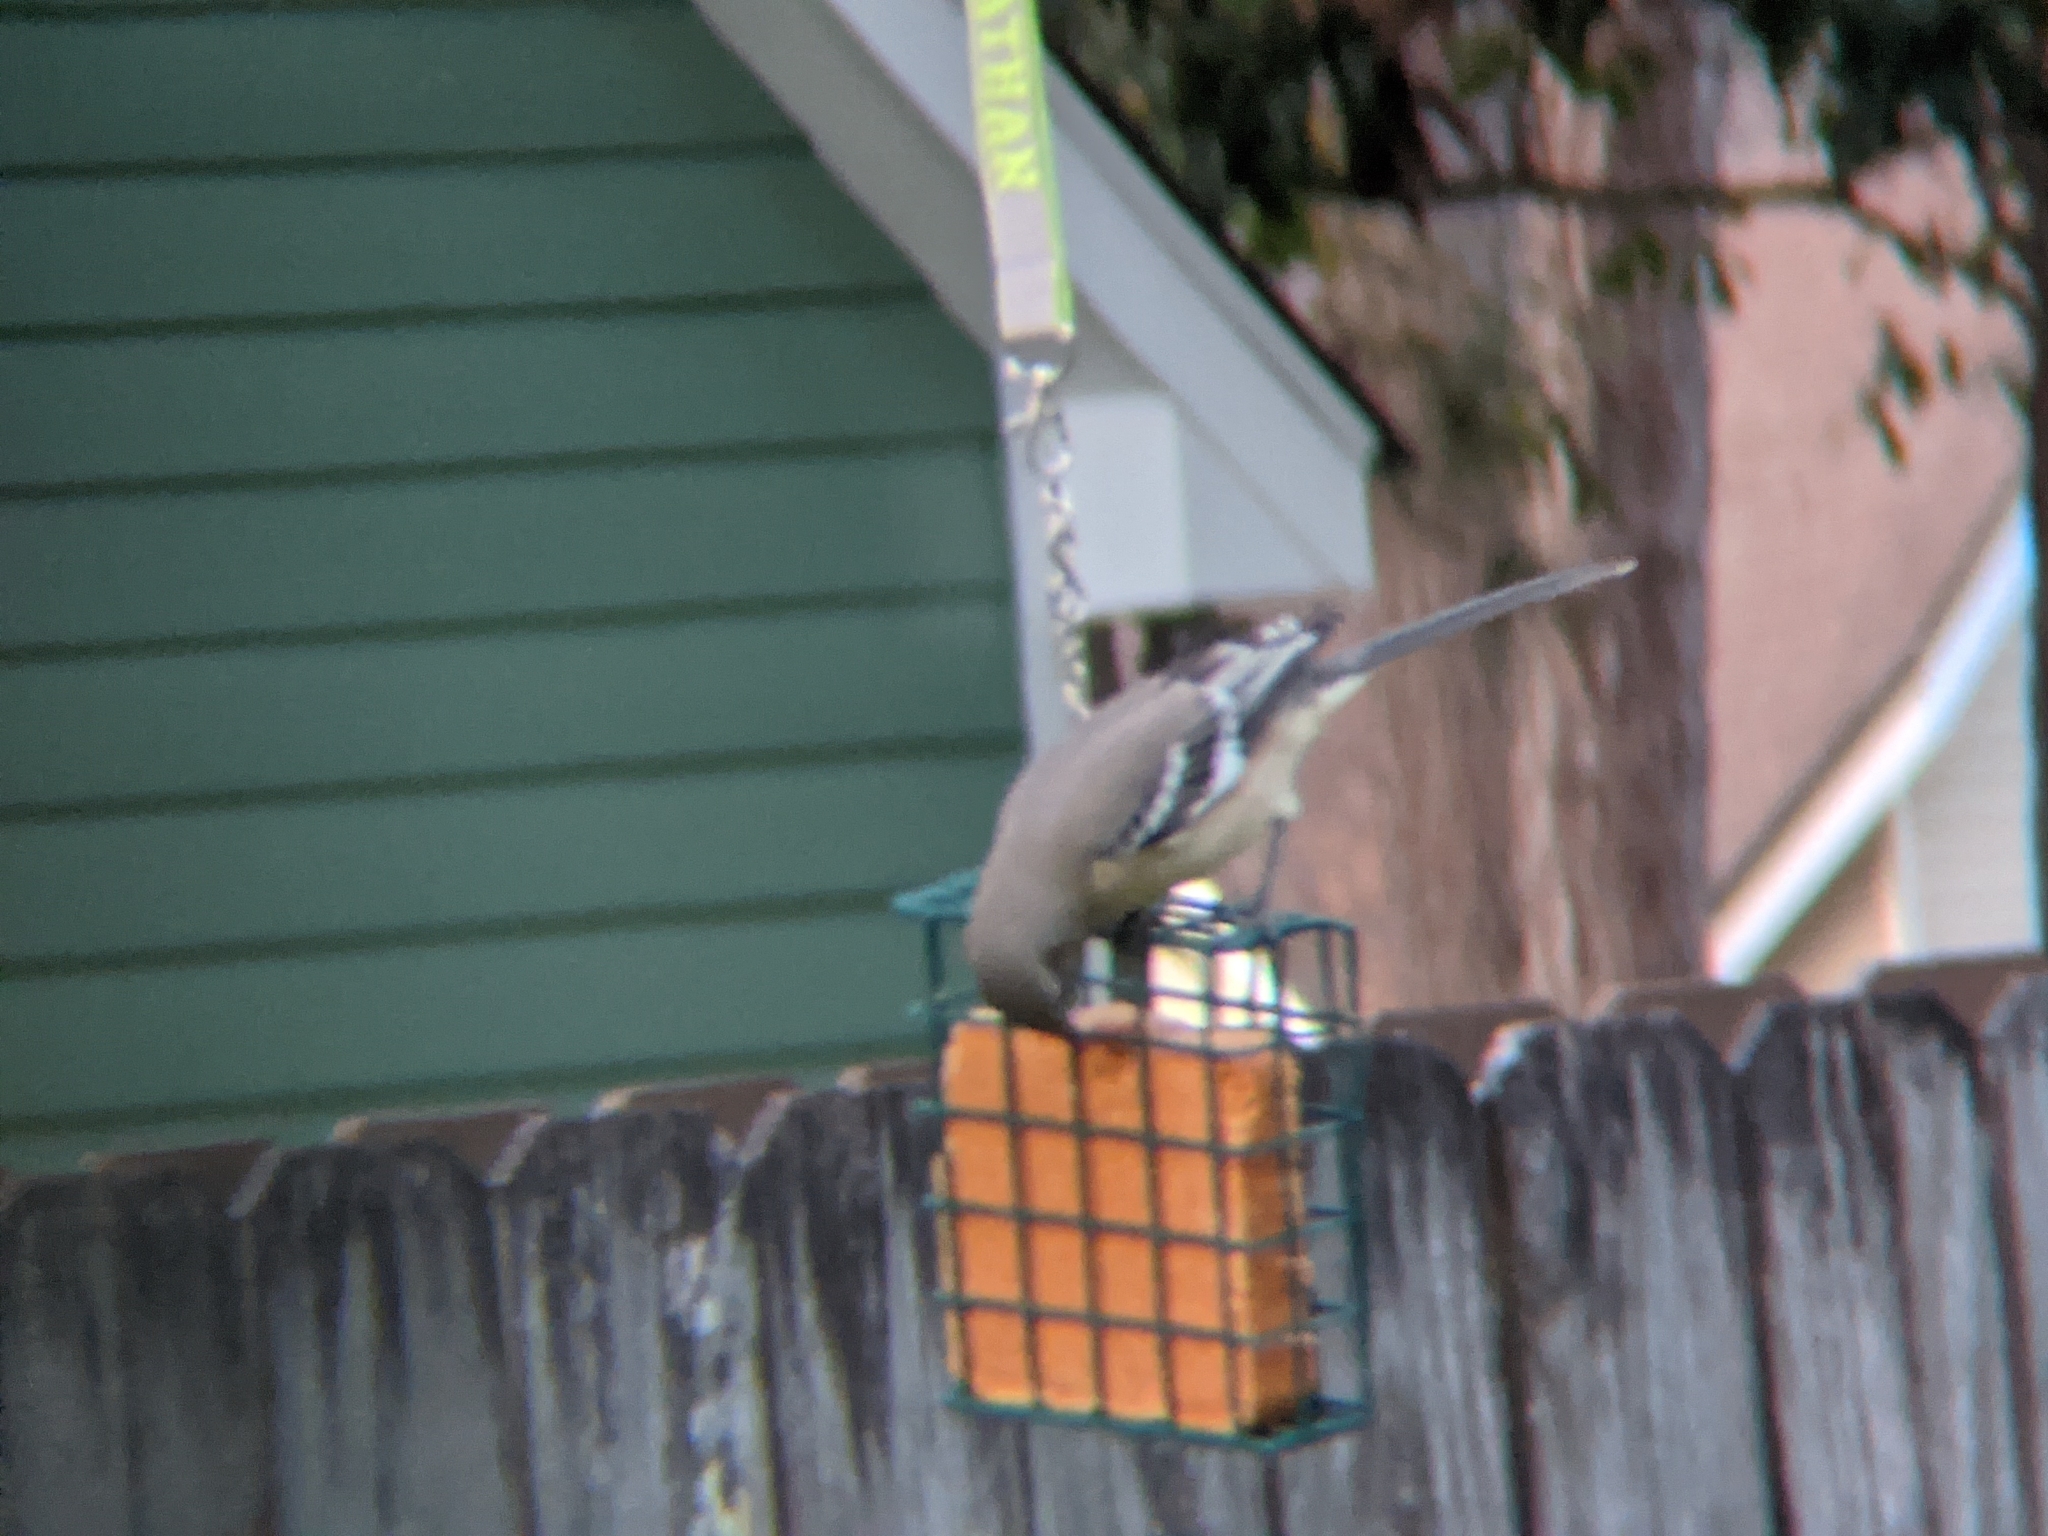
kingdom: Animalia
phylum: Chordata
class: Aves
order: Passeriformes
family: Mimidae
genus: Mimus
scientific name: Mimus polyglottos
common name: Northern mockingbird
